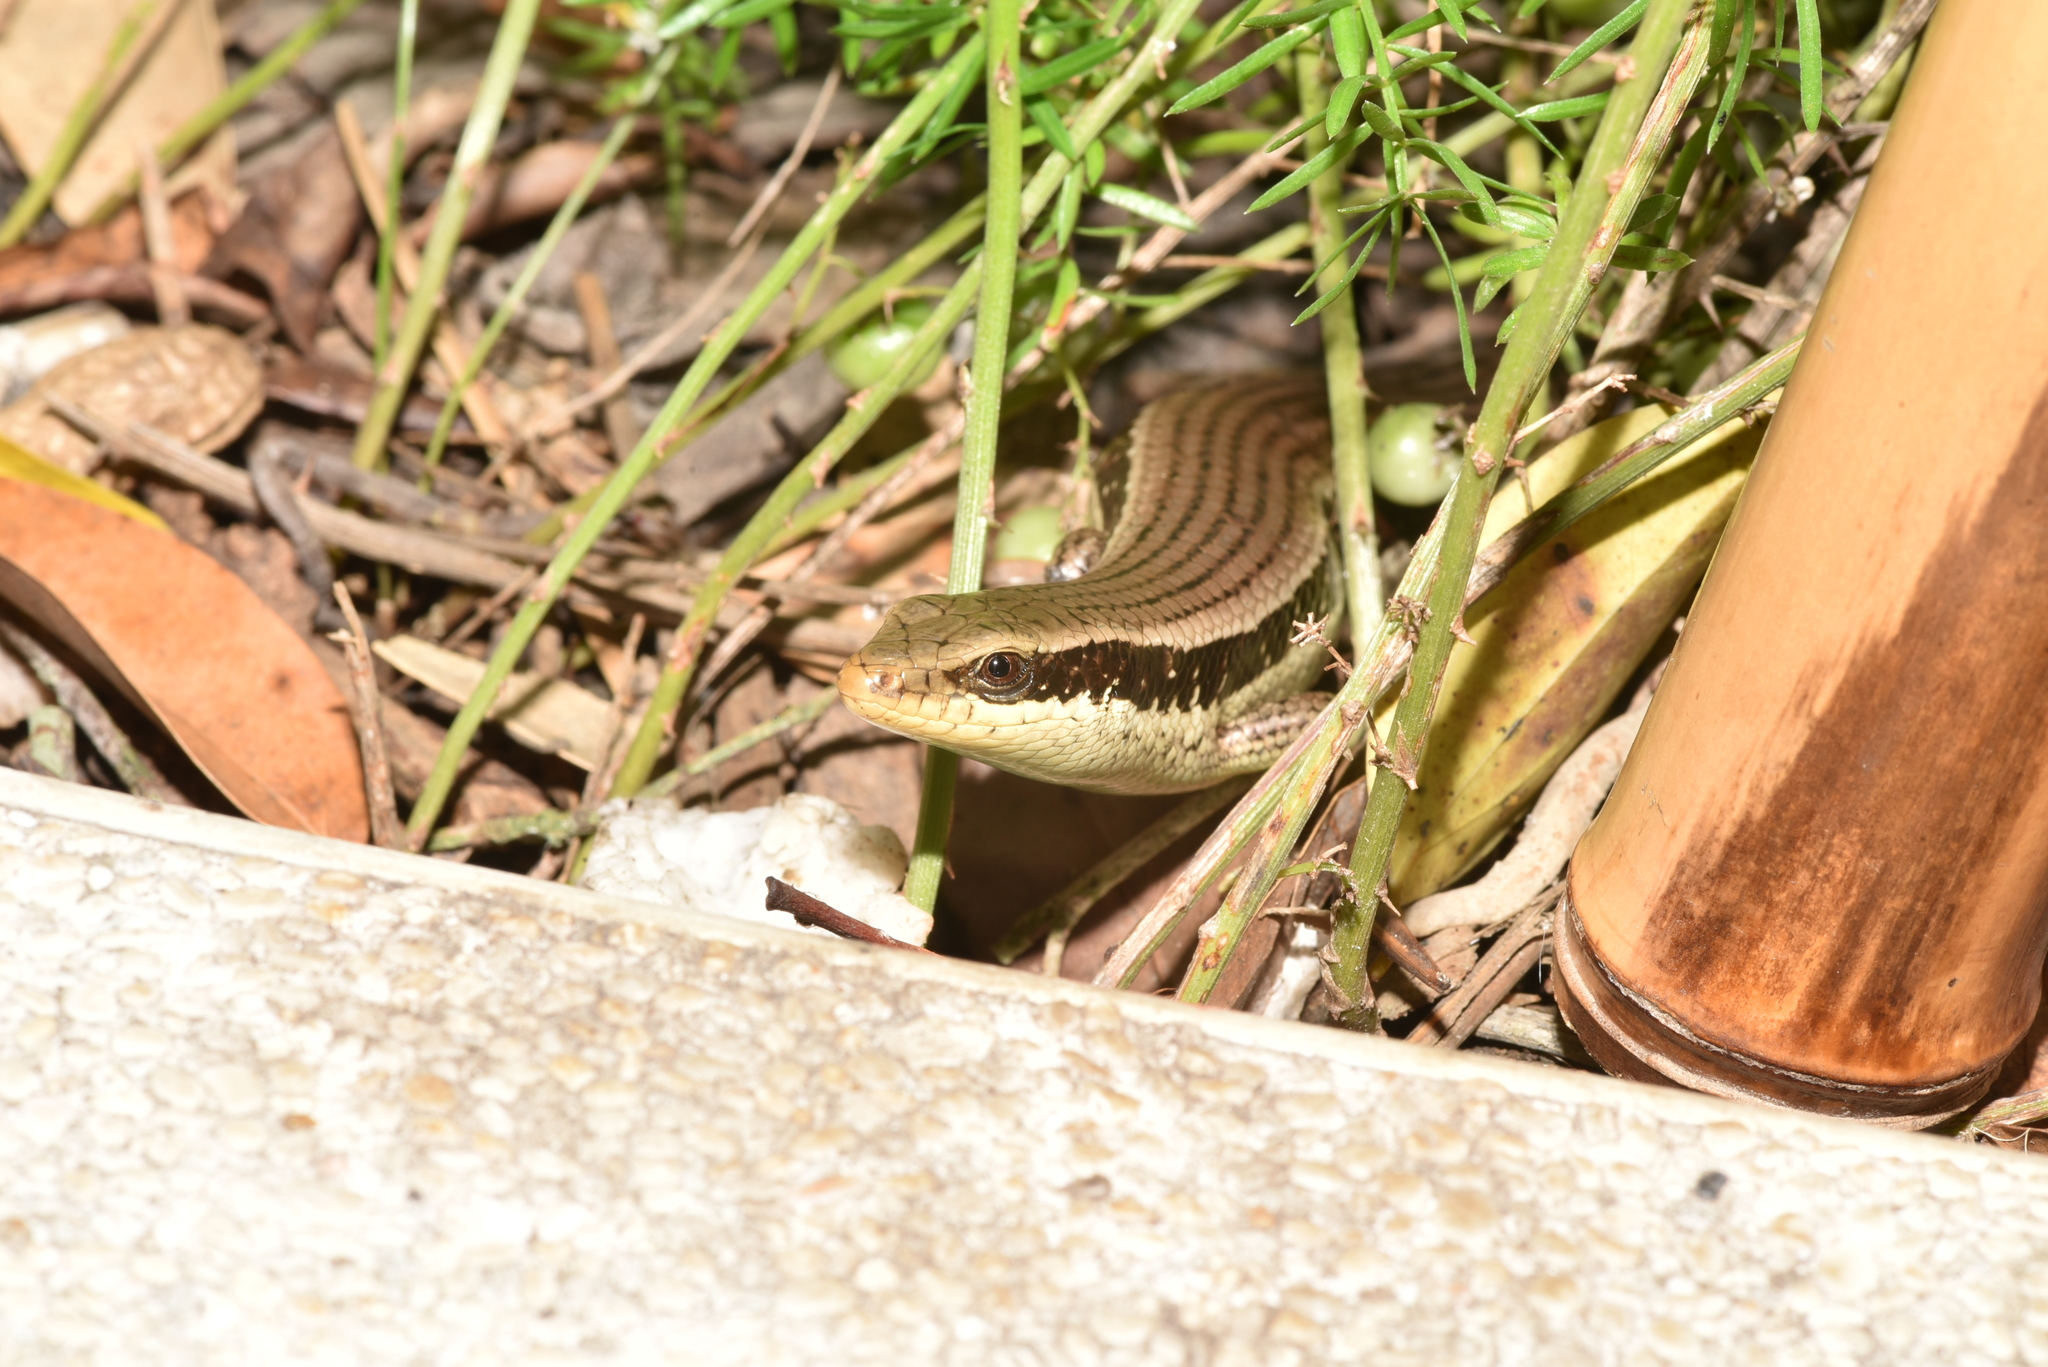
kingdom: Animalia
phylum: Chordata
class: Squamata
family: Scincidae
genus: Eutropis
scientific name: Eutropis longicaudata
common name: Long-tailed sun skink
